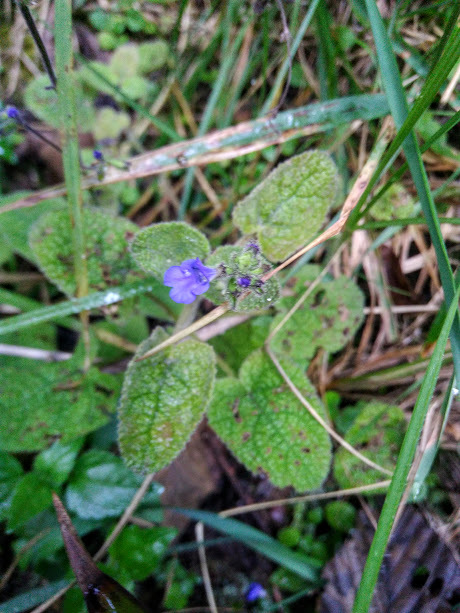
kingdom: Plantae
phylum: Tracheophyta
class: Magnoliopsida
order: Lamiales
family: Lamiaceae
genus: Salvia
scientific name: Salvia palifolia
